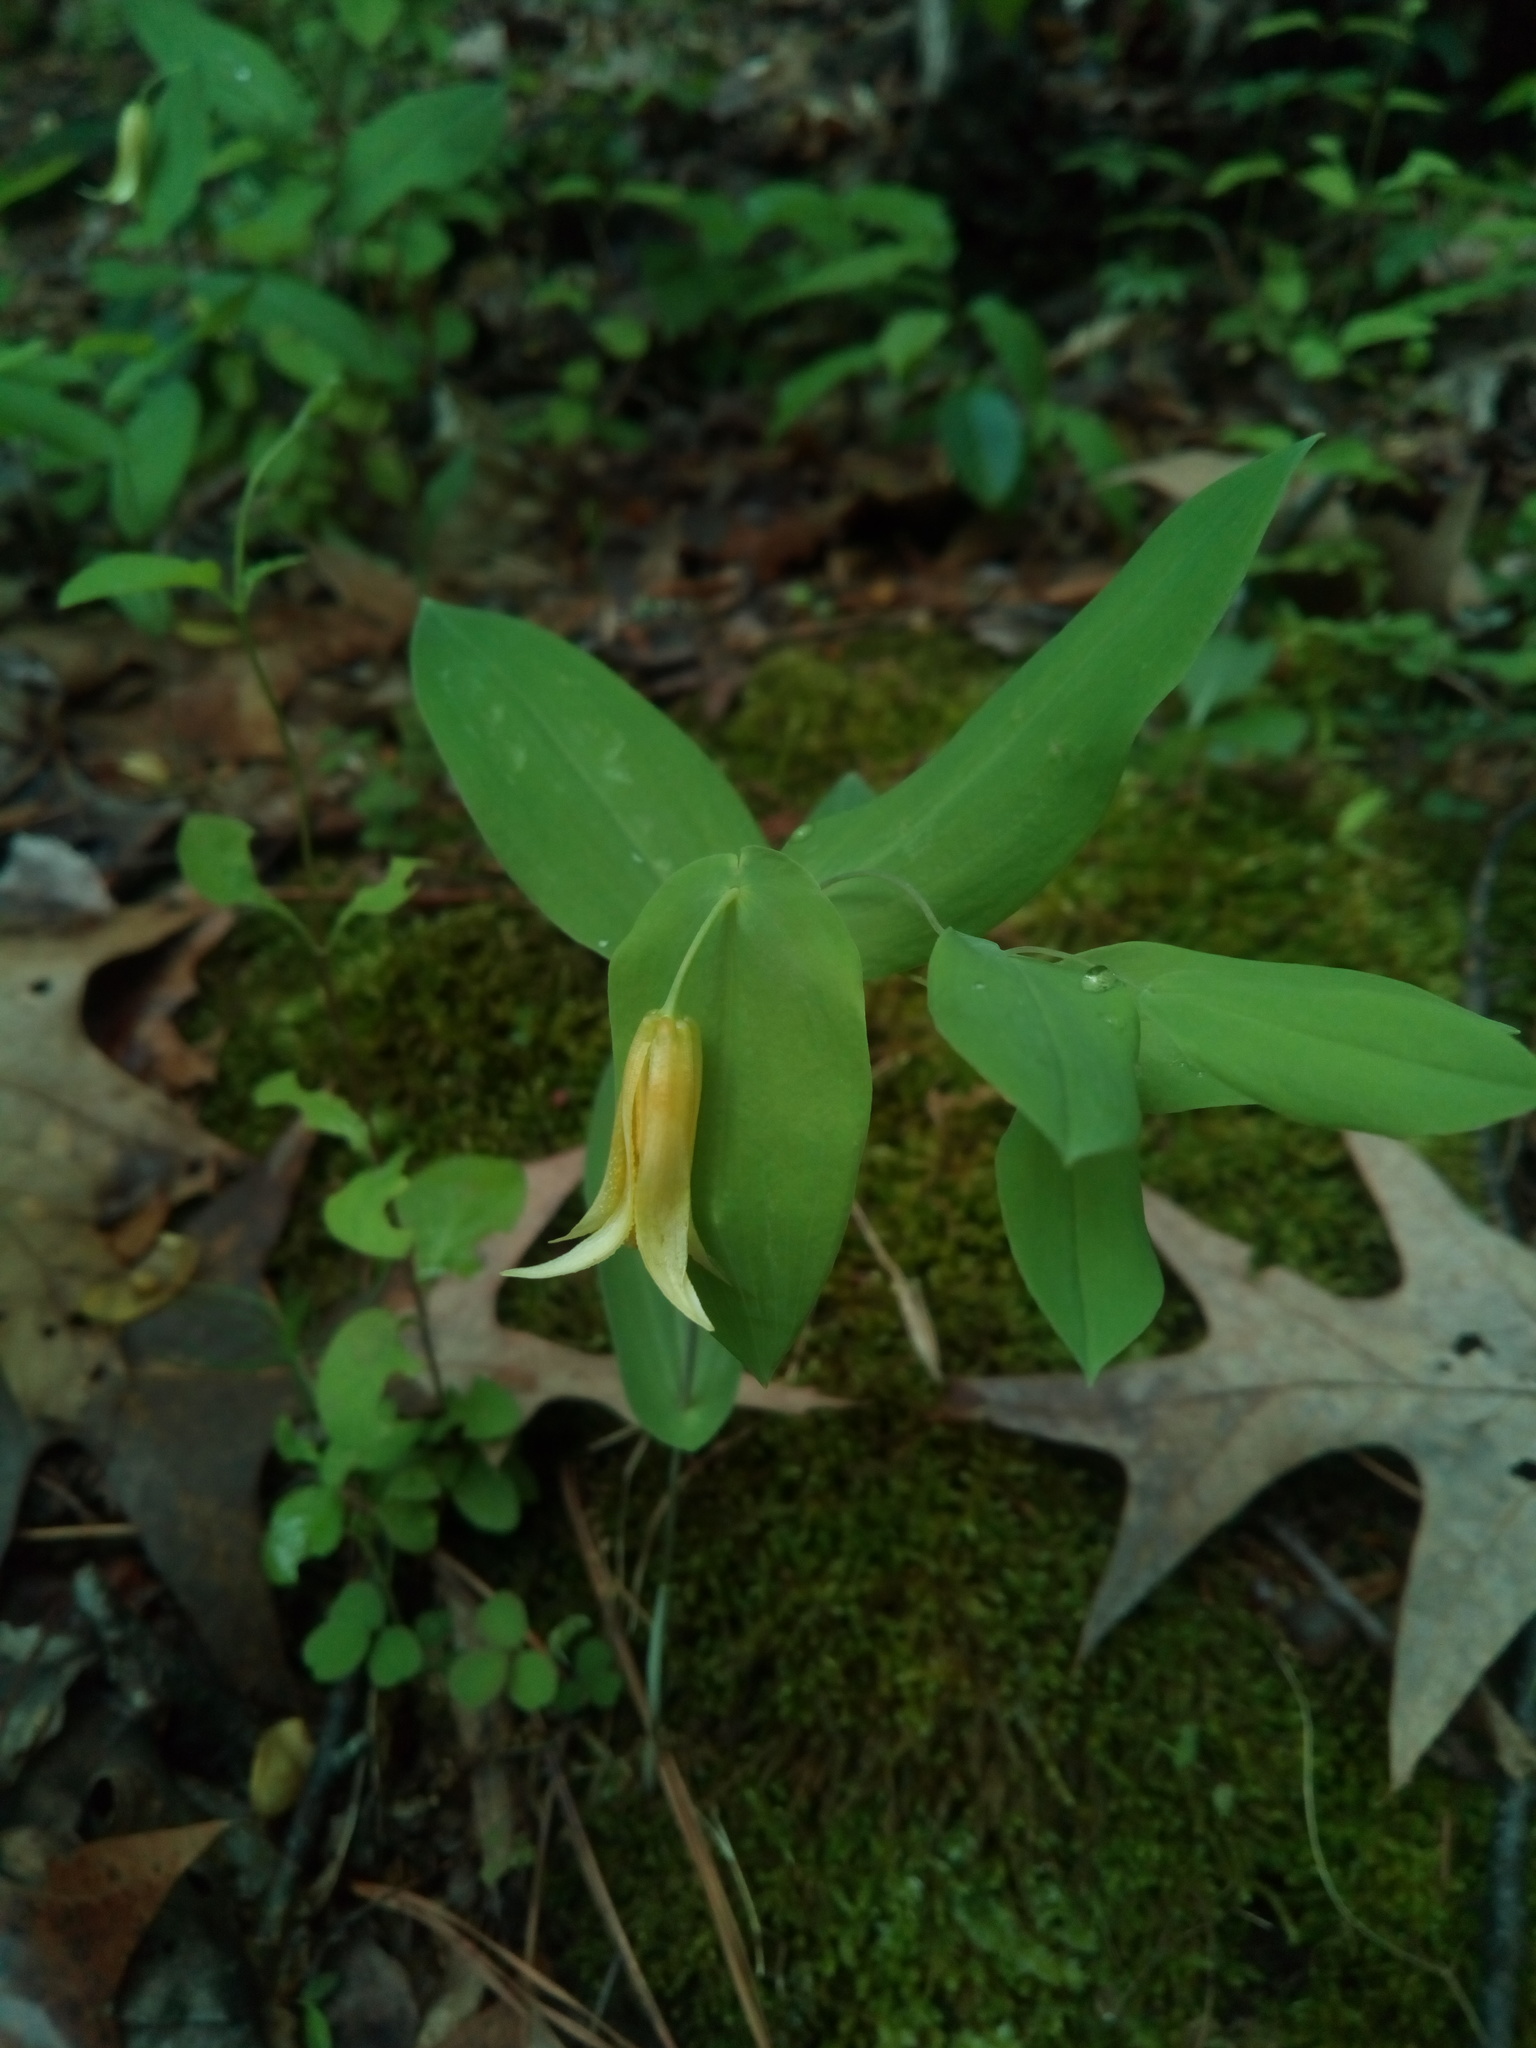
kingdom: Plantae
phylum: Tracheophyta
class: Liliopsida
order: Liliales
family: Colchicaceae
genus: Uvularia
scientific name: Uvularia perfoliata
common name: Perfoliate bellwort
